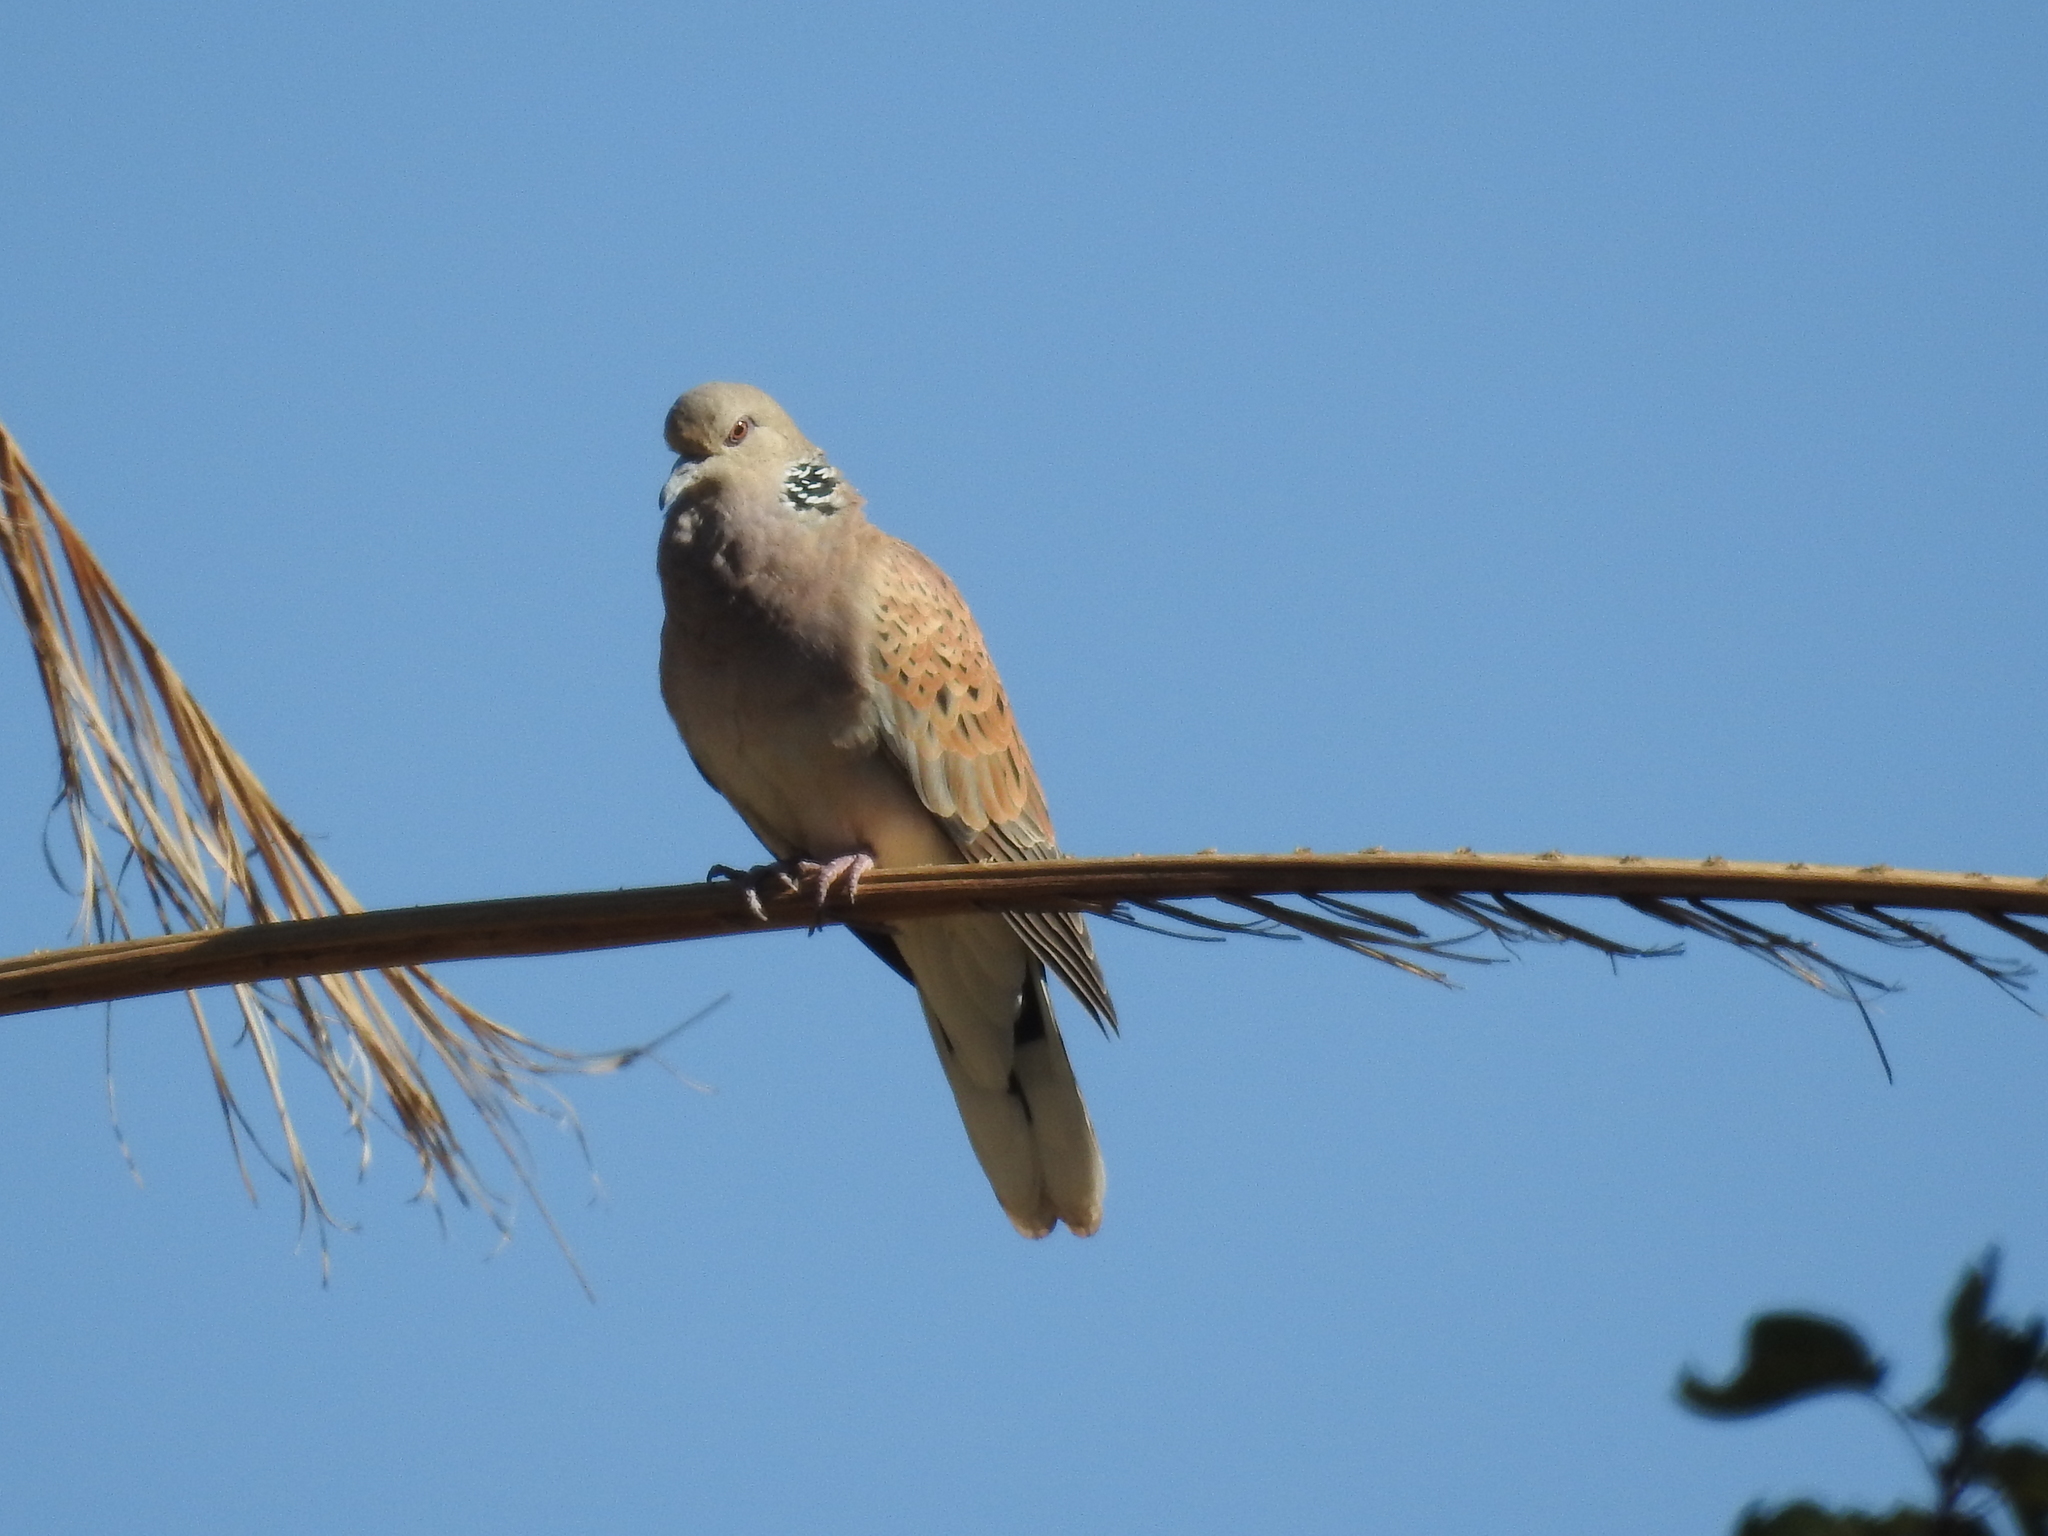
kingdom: Animalia
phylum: Chordata
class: Aves
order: Columbiformes
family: Columbidae
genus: Streptopelia
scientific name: Streptopelia turtur
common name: European turtle dove
